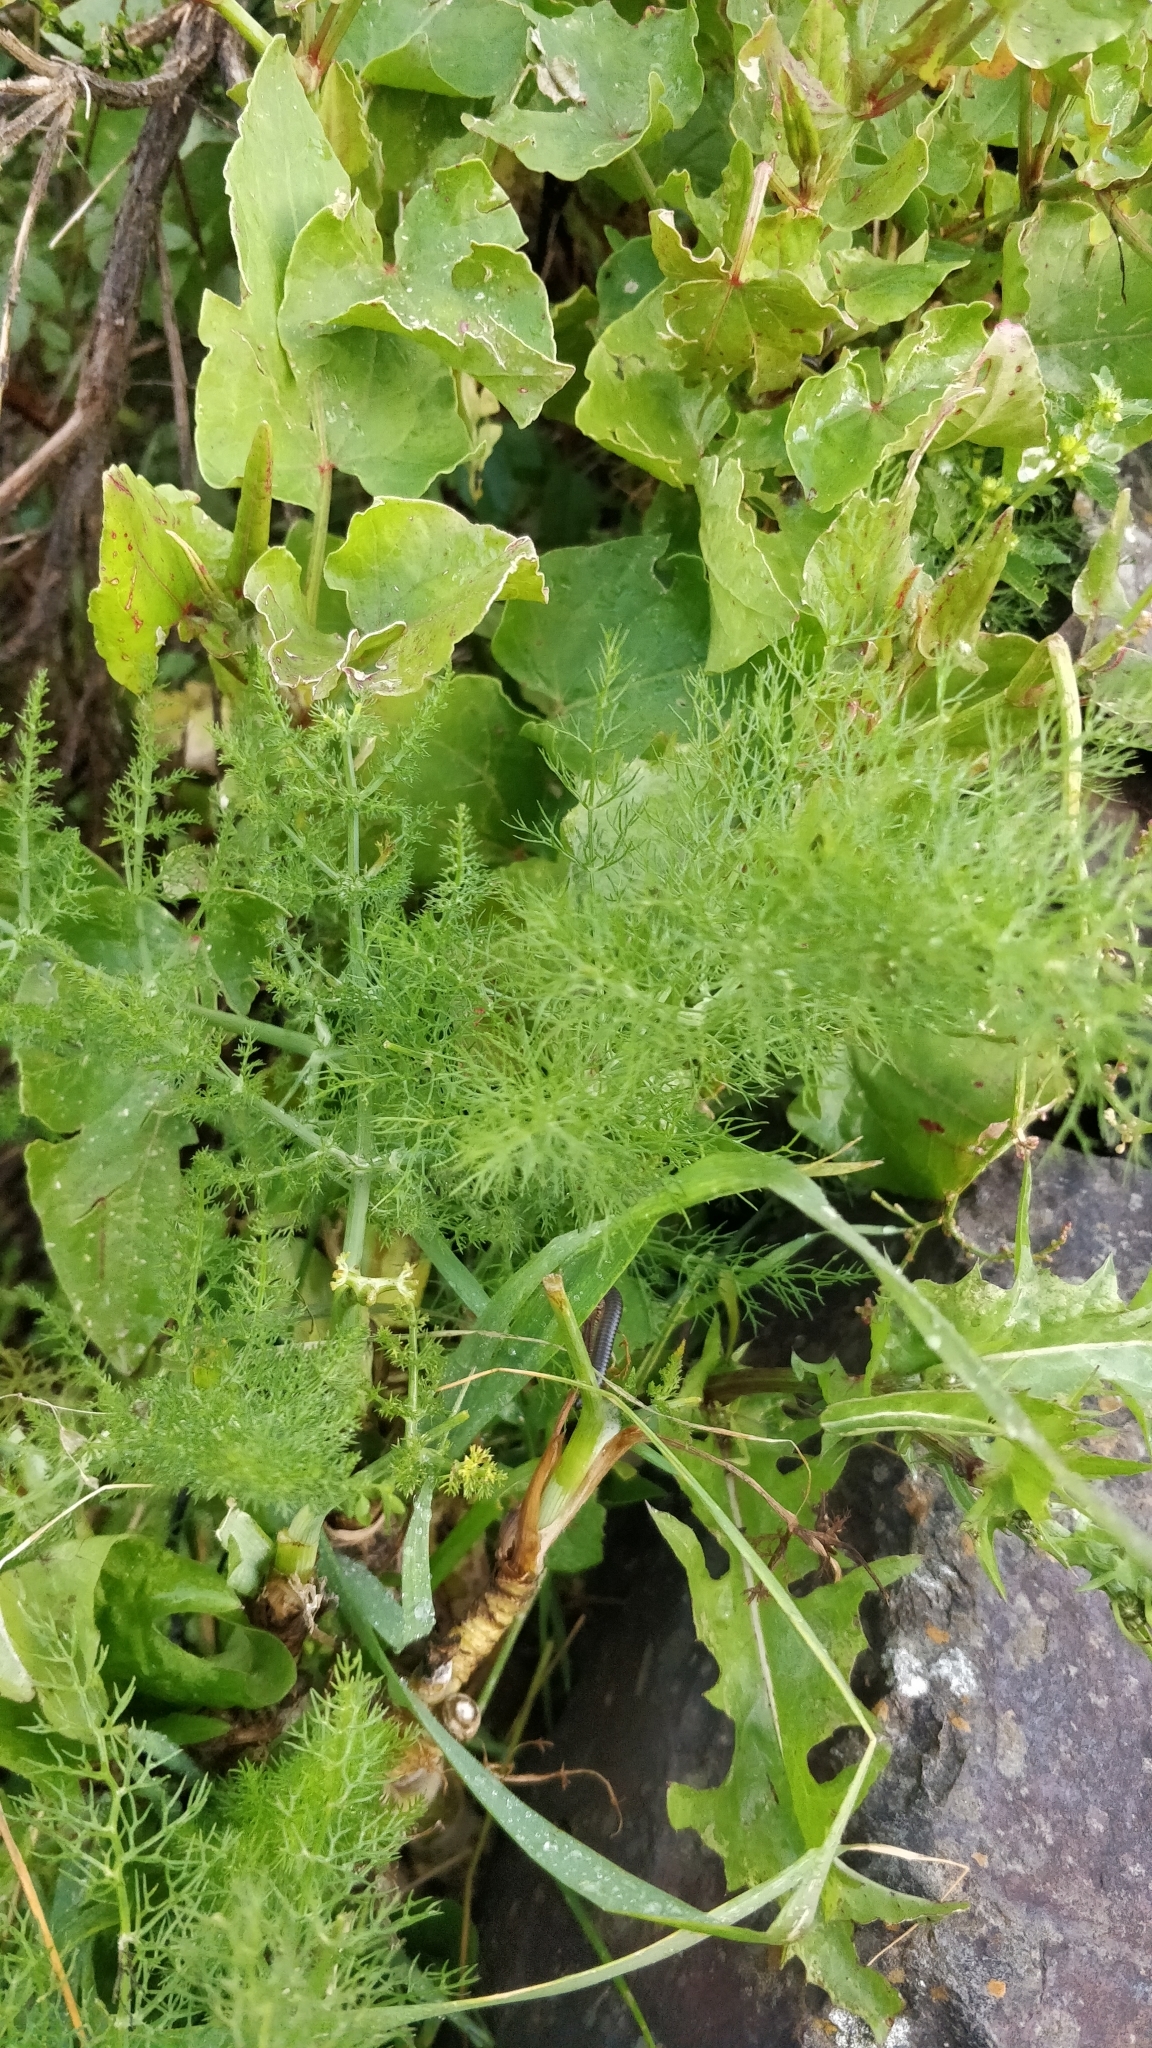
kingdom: Plantae
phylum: Tracheophyta
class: Magnoliopsida
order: Apiales
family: Apiaceae
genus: Foeniculum
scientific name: Foeniculum vulgare
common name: Fennel
